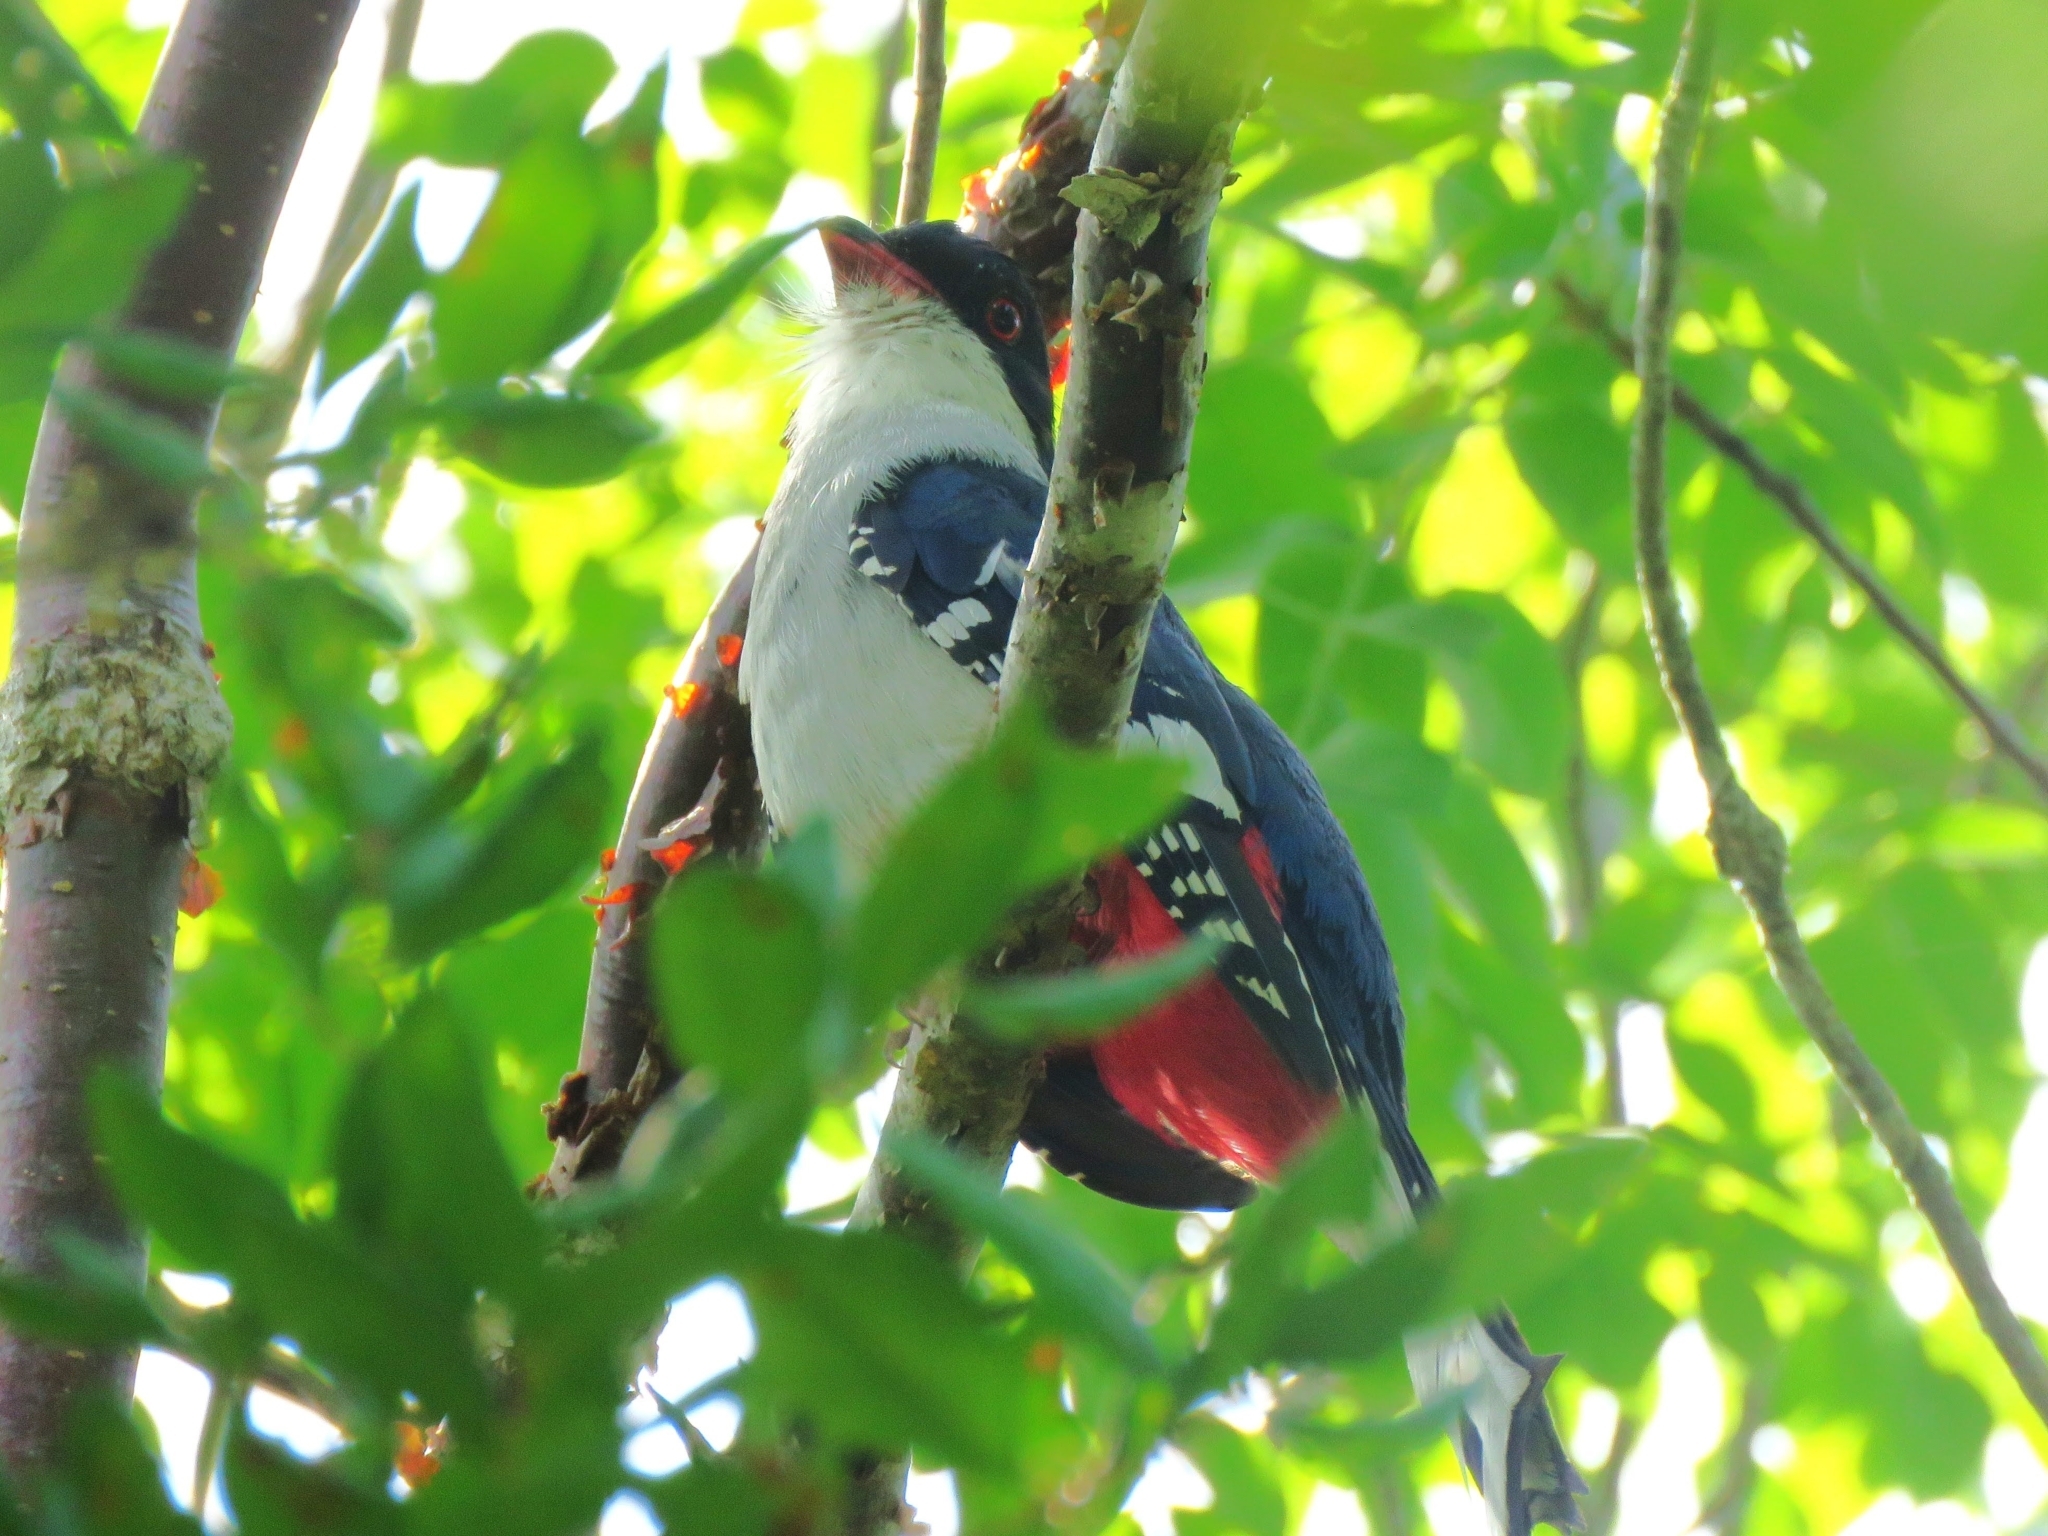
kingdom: Animalia
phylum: Chordata
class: Aves
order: Trogoniformes
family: Trogonidae
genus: Priotelus
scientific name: Priotelus temnurus
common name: Cuban trogon
